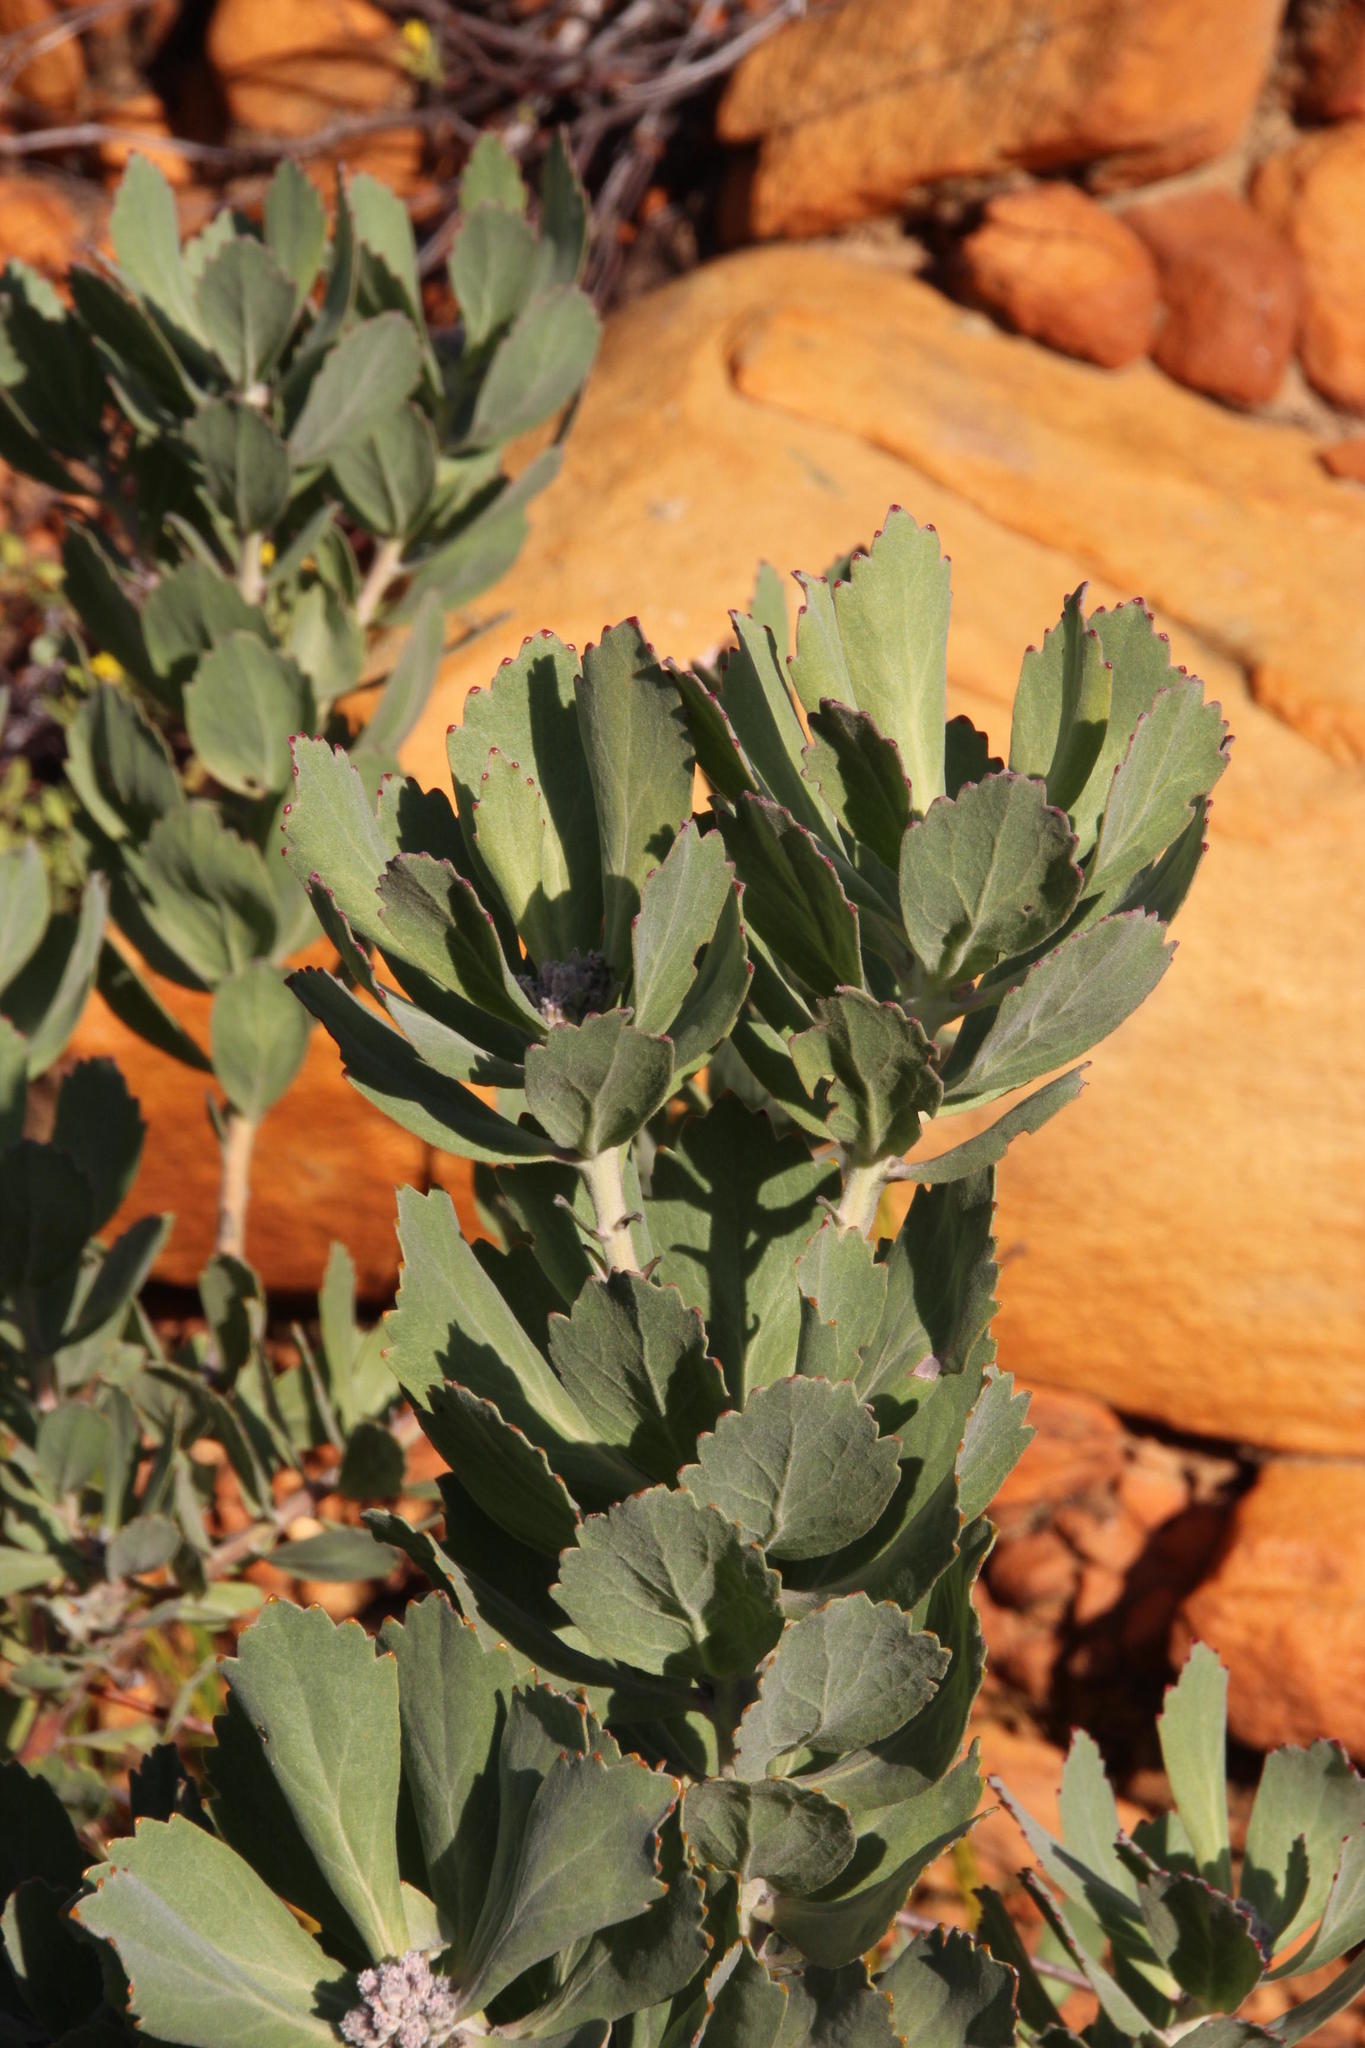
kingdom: Plantae
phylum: Tracheophyta
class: Magnoliopsida
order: Proteales
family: Proteaceae
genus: Leucospermum
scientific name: Leucospermum mundii
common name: Langeberg pincushion
